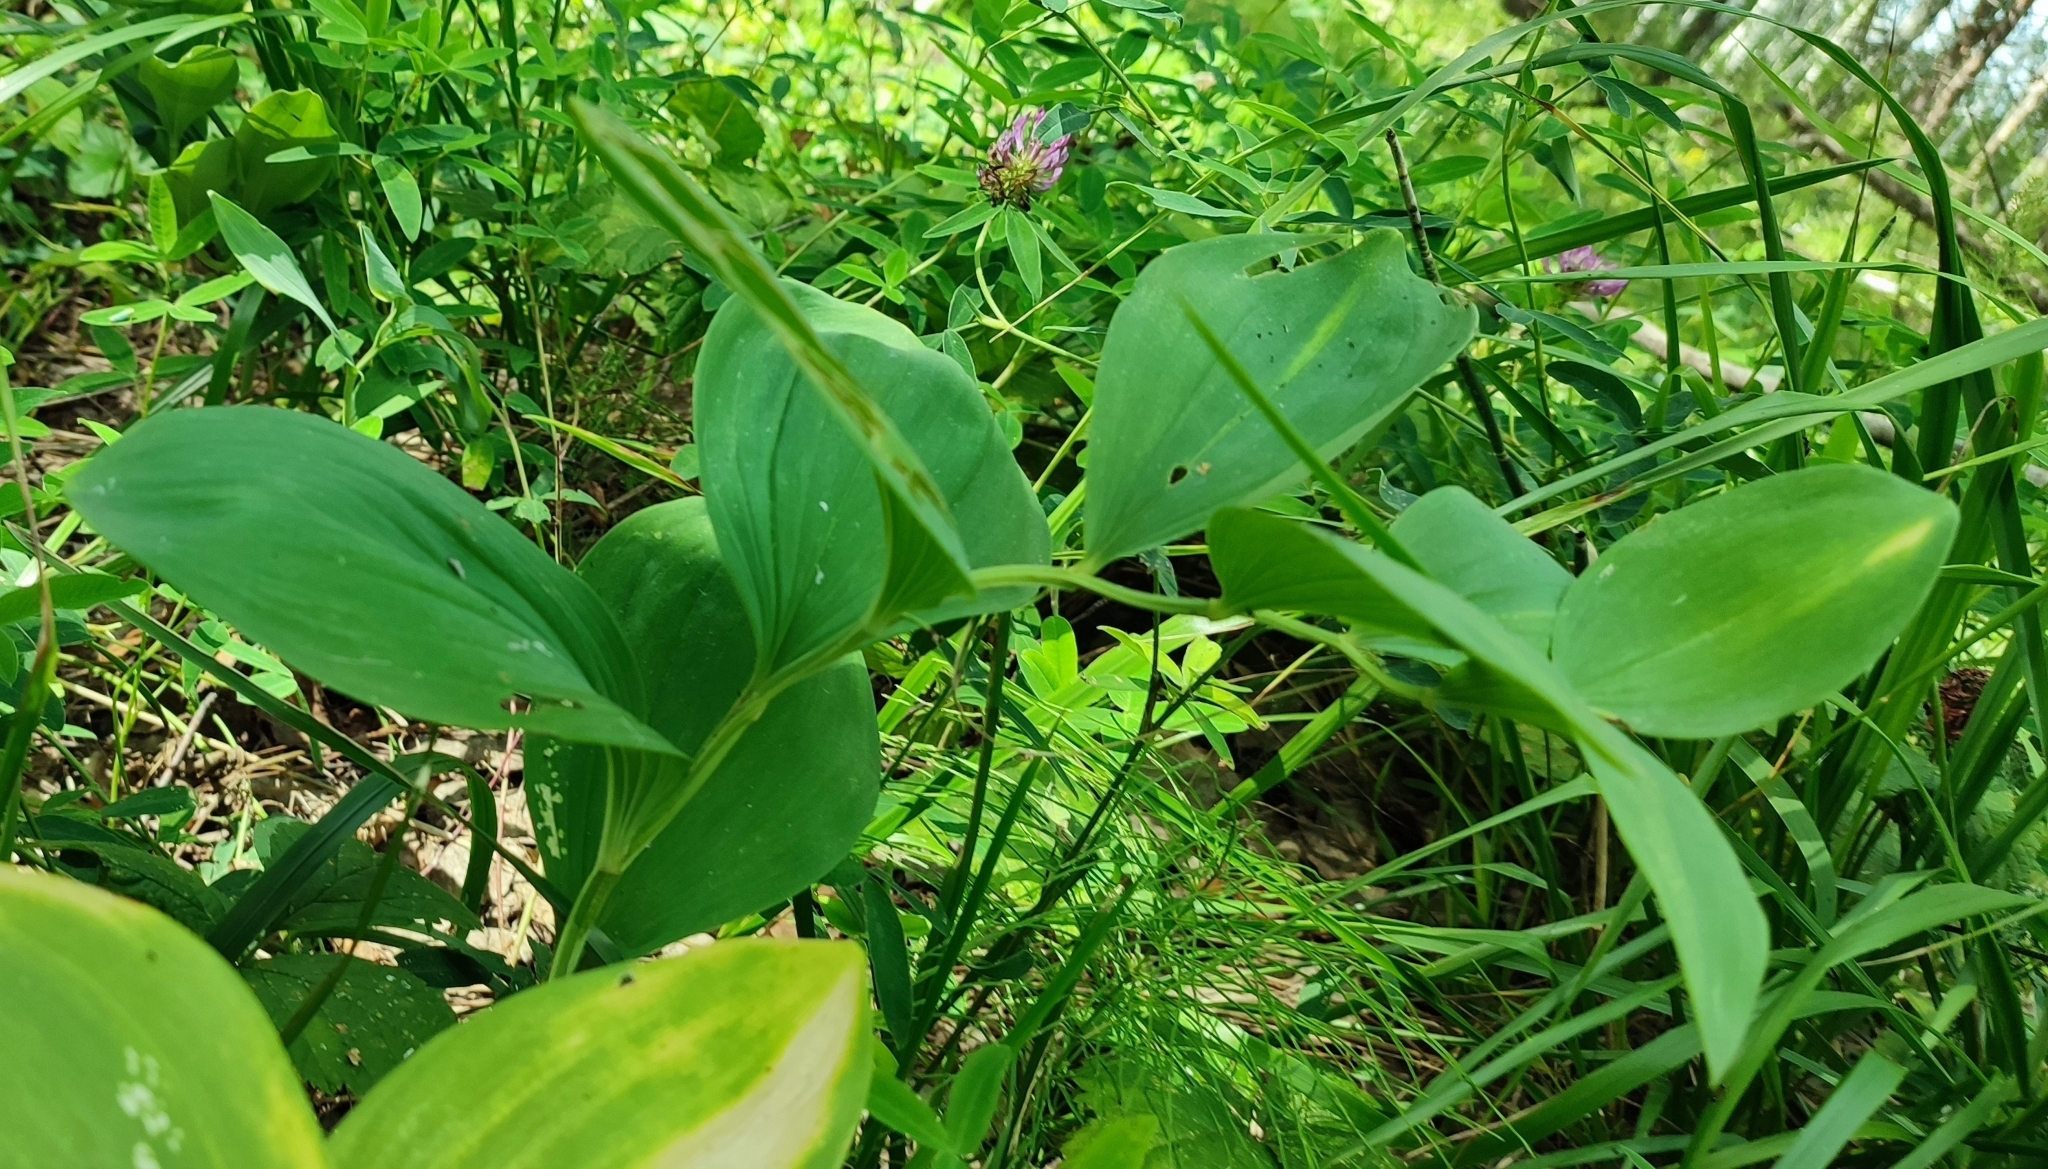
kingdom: Plantae
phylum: Tracheophyta
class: Liliopsida
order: Asparagales
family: Asparagaceae
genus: Polygonatum
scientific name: Polygonatum odoratum
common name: Angular solomon's-seal
